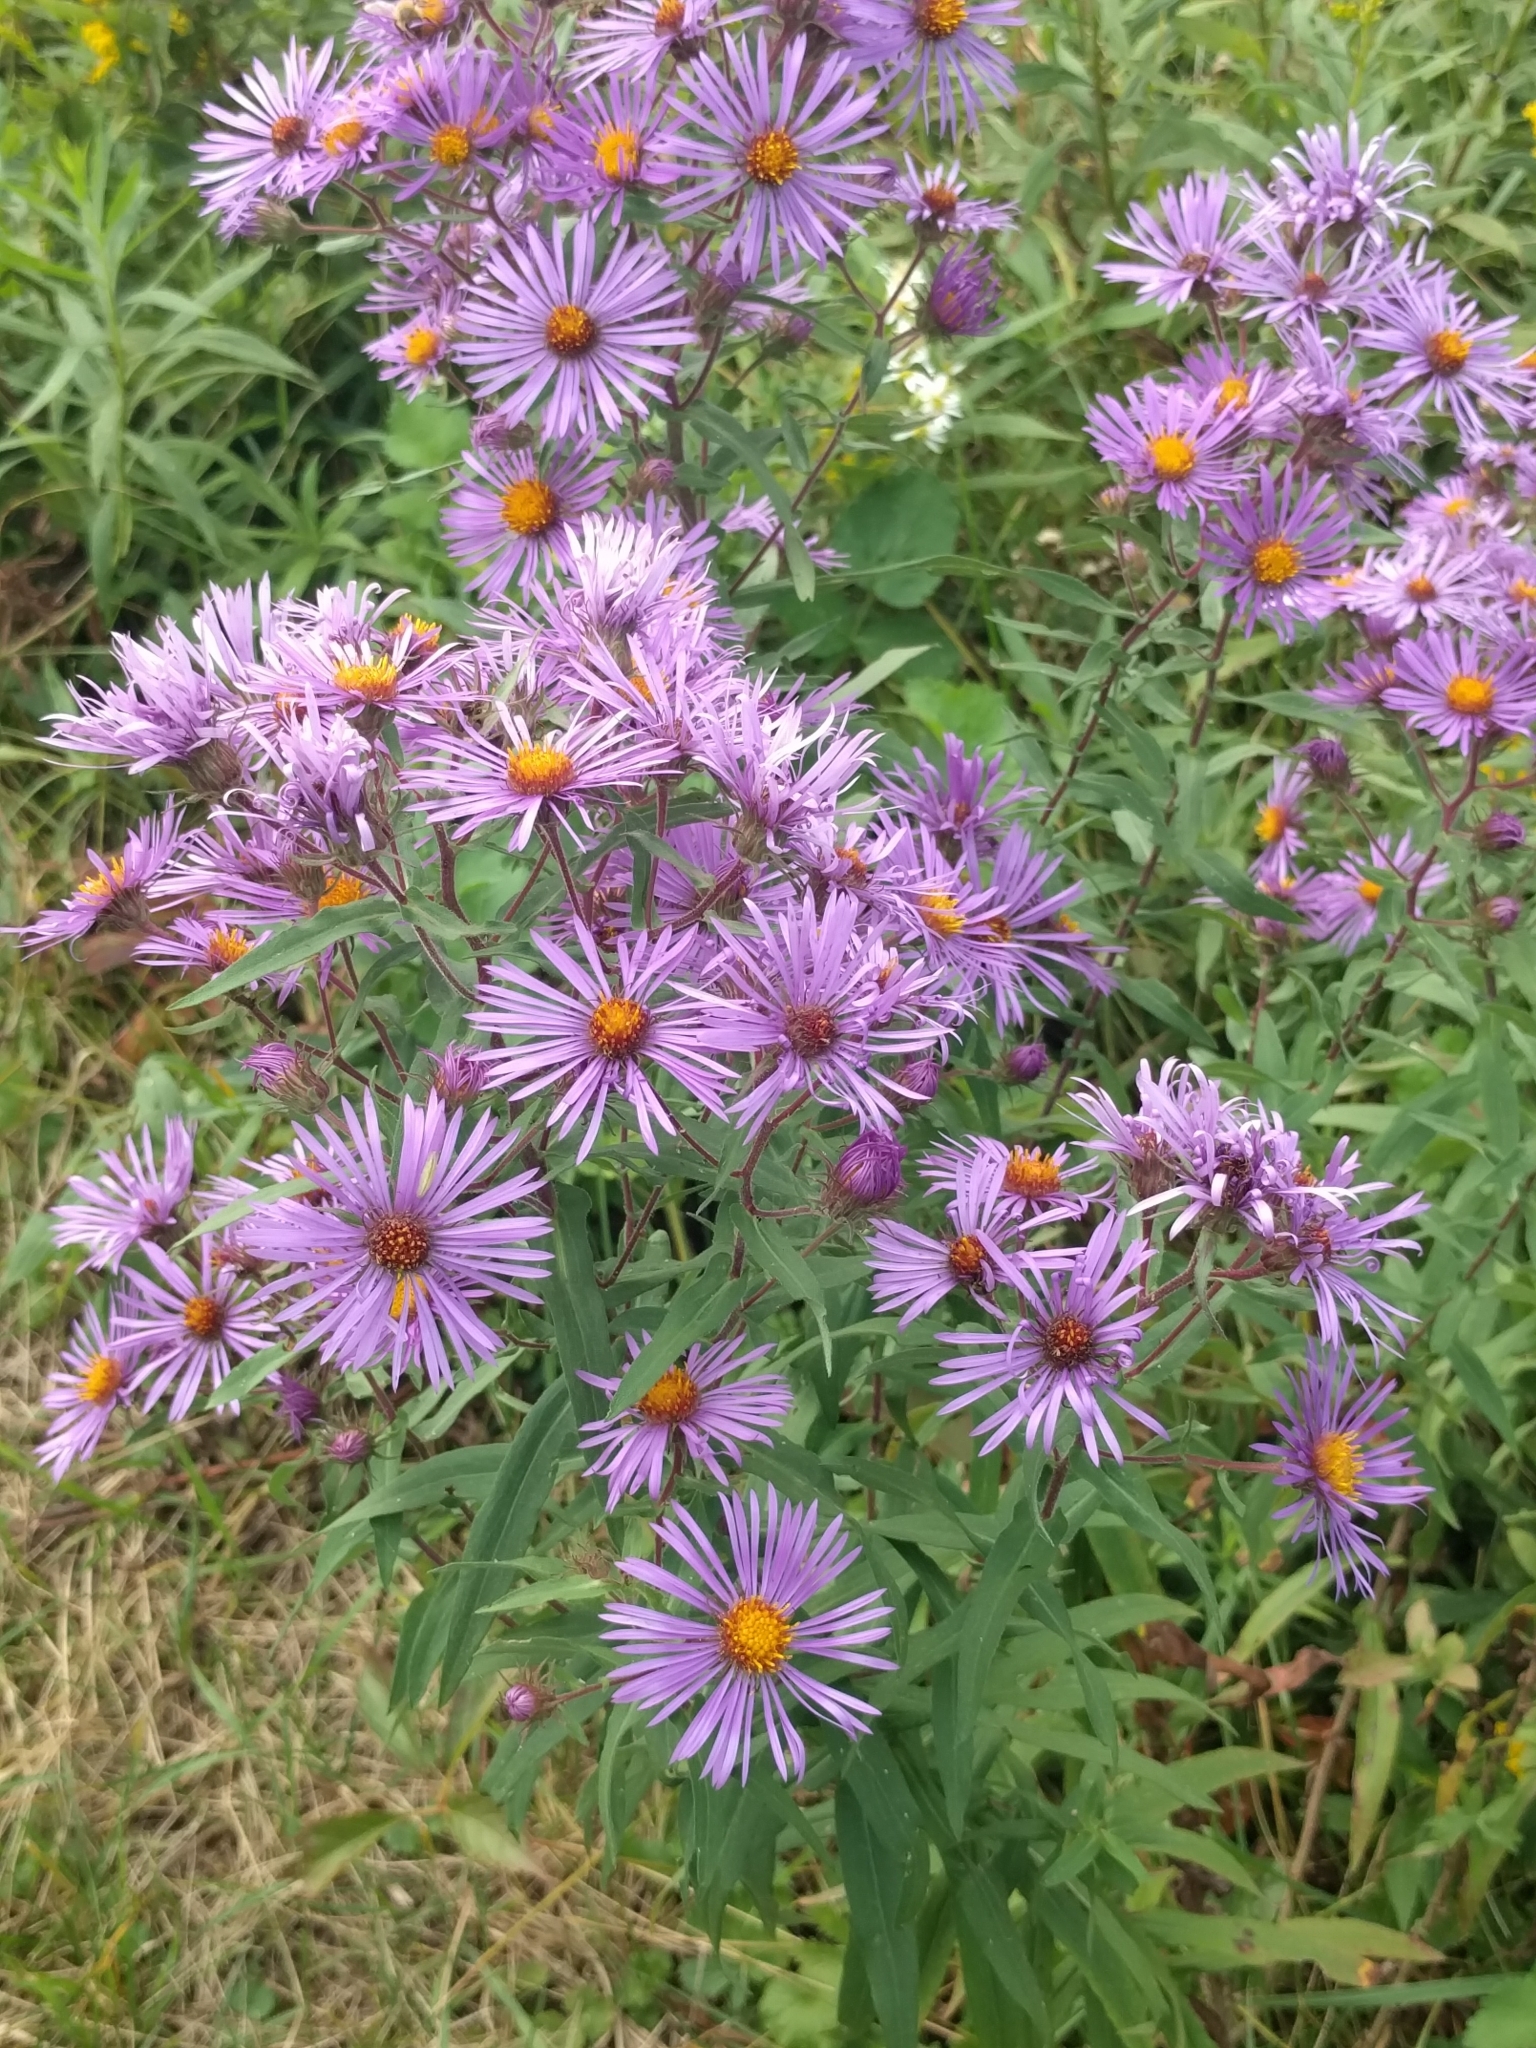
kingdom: Plantae
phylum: Tracheophyta
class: Magnoliopsida
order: Asterales
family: Asteraceae
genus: Symphyotrichum
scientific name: Symphyotrichum novae-angliae
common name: Michaelmas daisy
